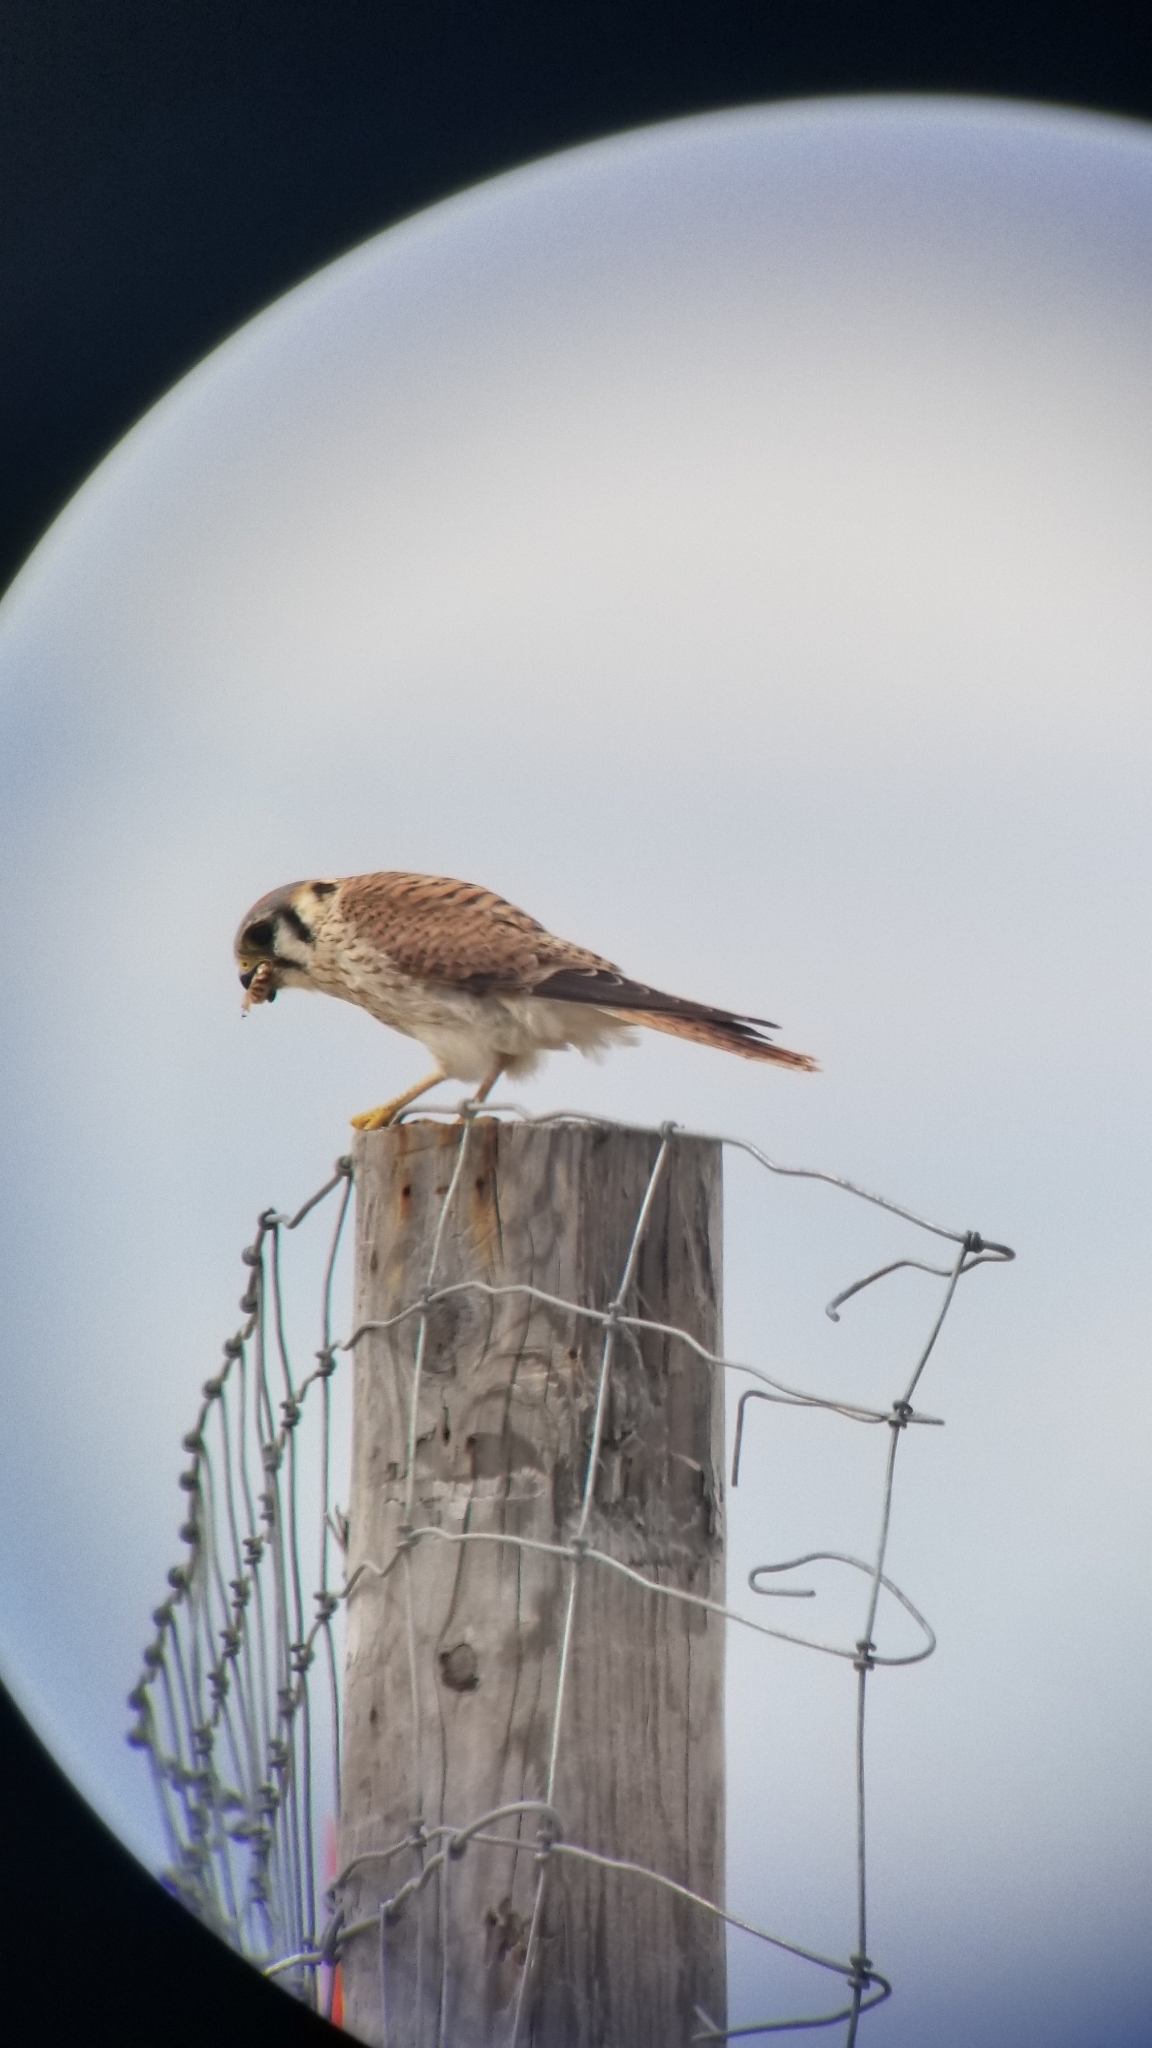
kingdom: Animalia
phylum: Chordata
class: Aves
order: Falconiformes
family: Falconidae
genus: Falco
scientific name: Falco sparverius
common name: American kestrel
